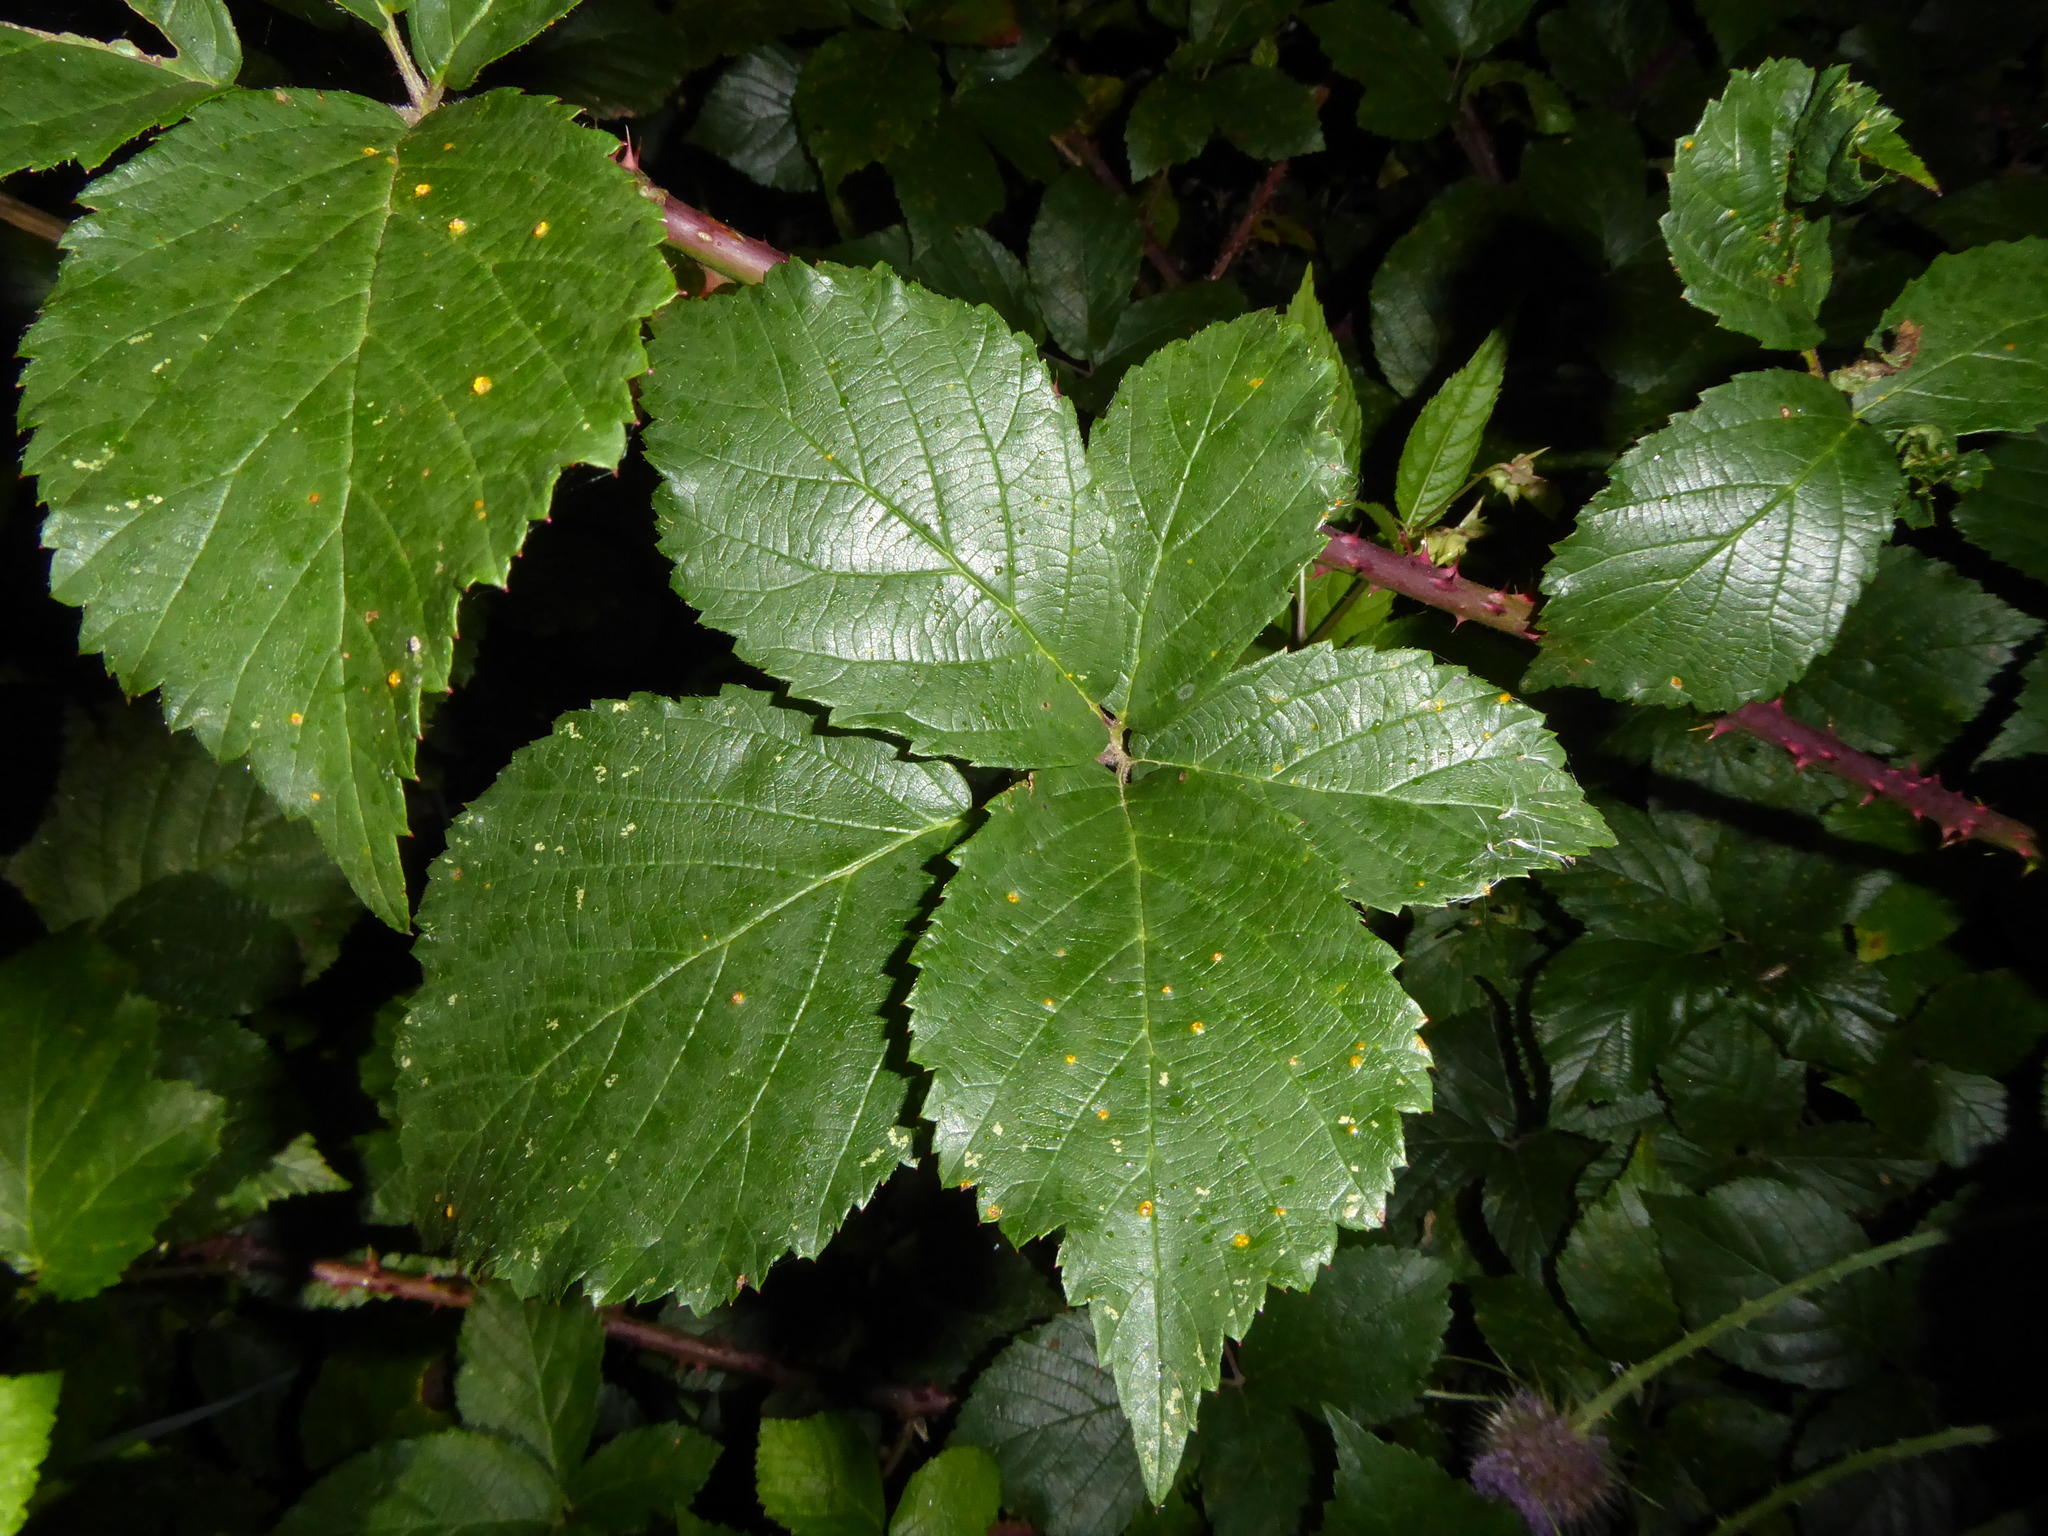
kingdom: Fungi
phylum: Basidiomycota
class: Pucciniomycetes
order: Pucciniales
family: Phragmidiaceae
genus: Kuehneola
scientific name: Kuehneola uredinis
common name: Bramble stem rust
